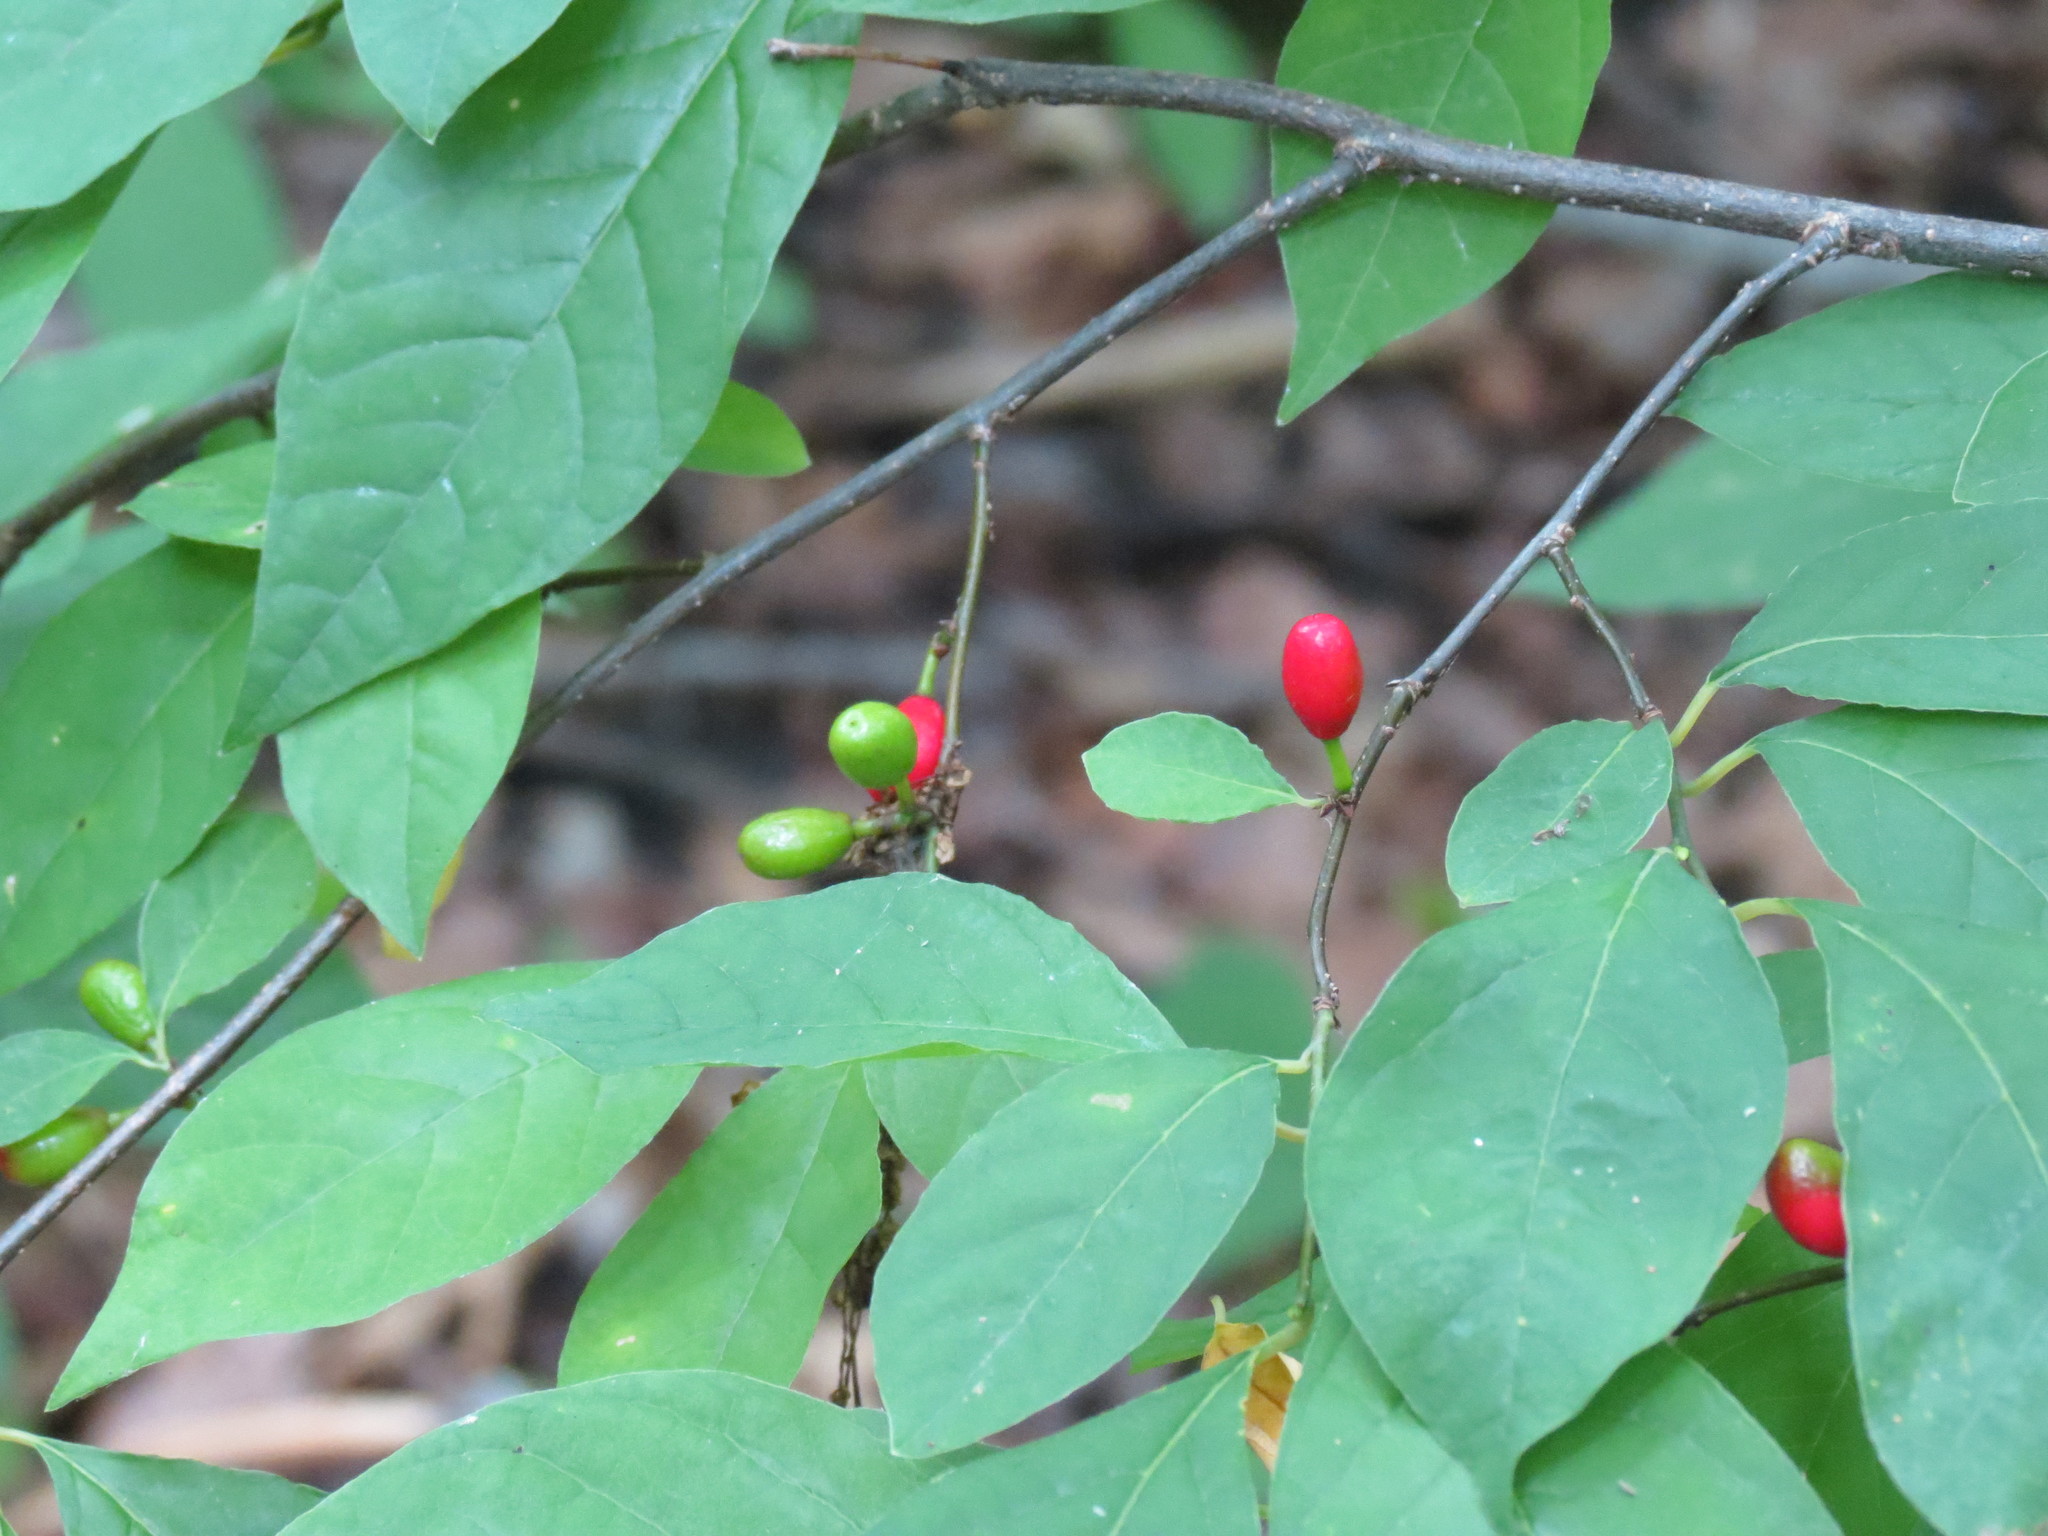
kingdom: Plantae
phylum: Tracheophyta
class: Magnoliopsida
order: Laurales
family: Lauraceae
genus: Lindera
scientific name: Lindera benzoin
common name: Spicebush
